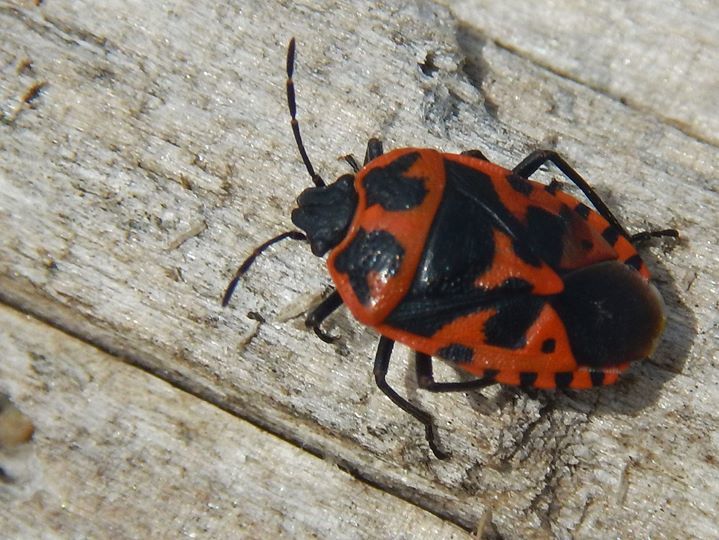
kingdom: Animalia
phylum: Arthropoda
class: Insecta
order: Hemiptera
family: Pentatomidae
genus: Eurydema
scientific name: Eurydema spectabilis
